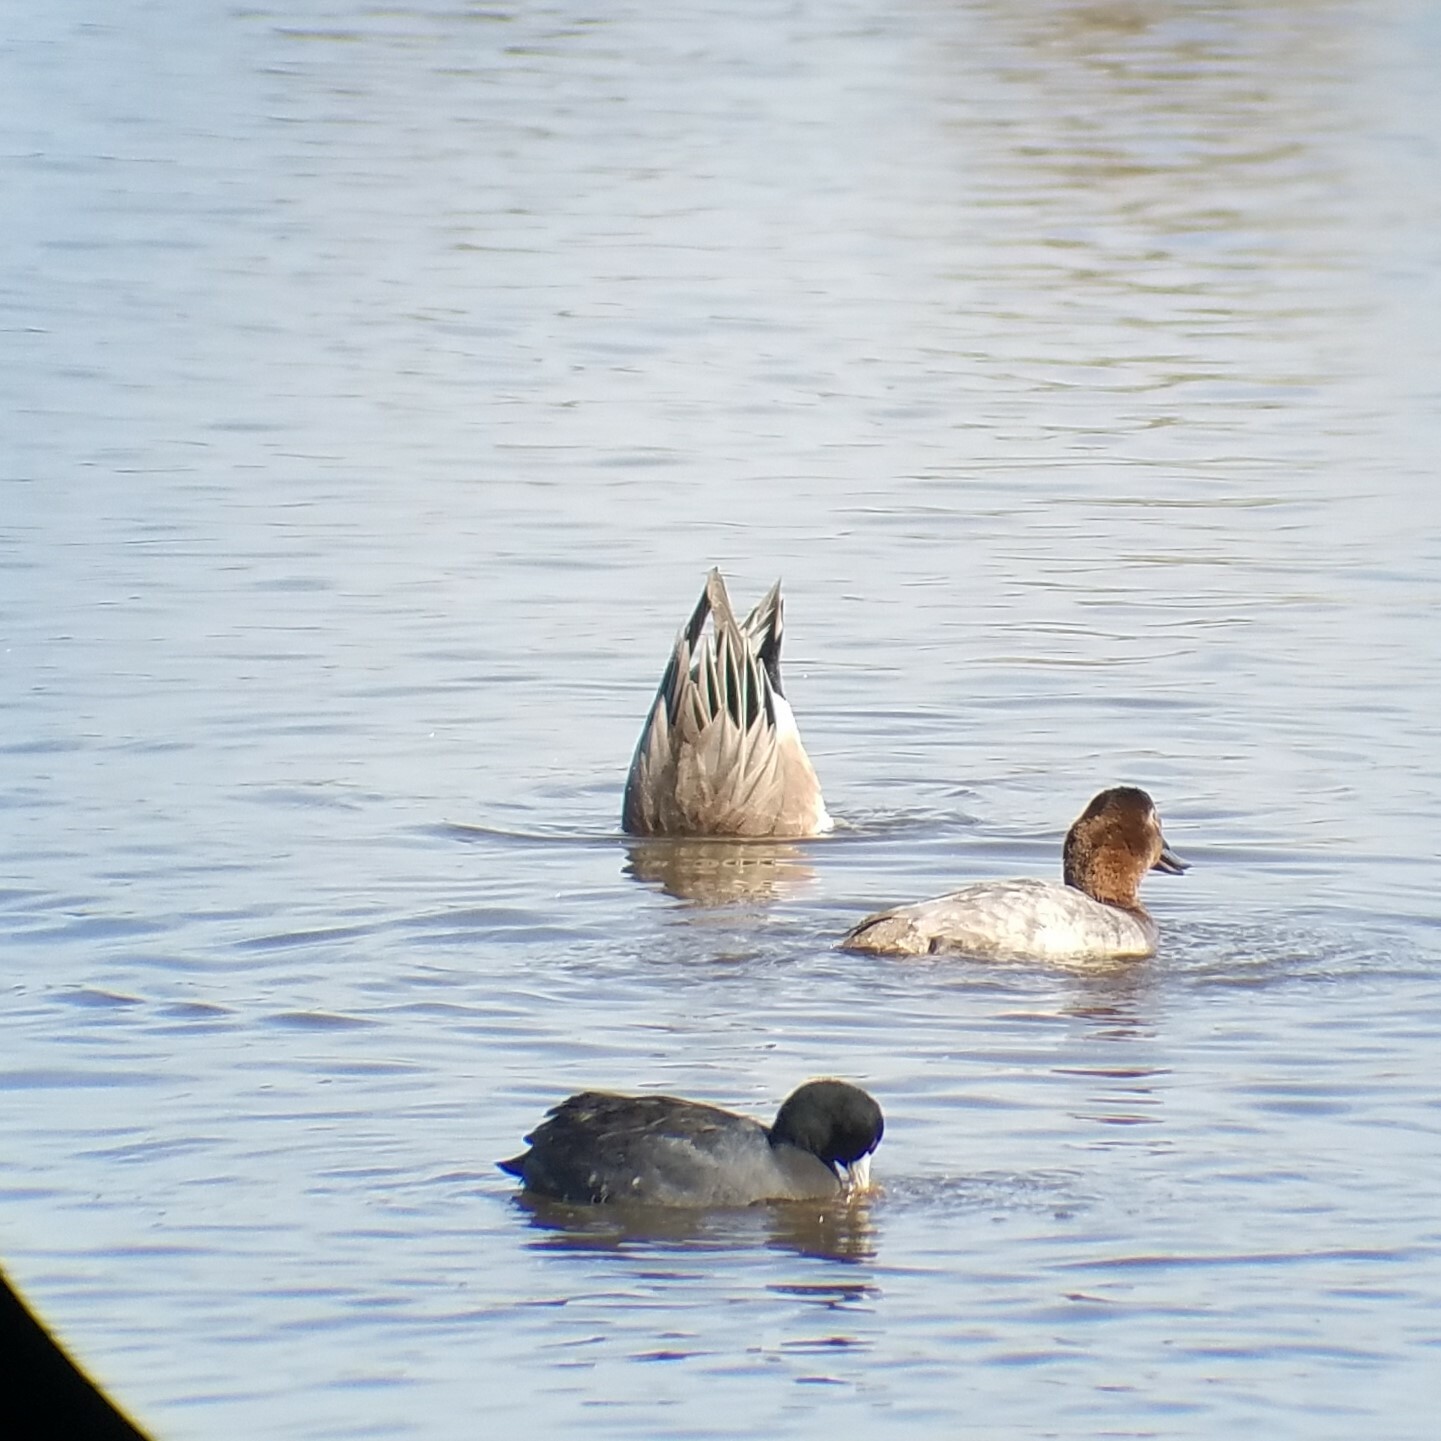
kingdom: Animalia
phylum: Chordata
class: Aves
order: Anseriformes
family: Anatidae
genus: Mareca
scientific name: Mareca americana
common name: American wigeon
